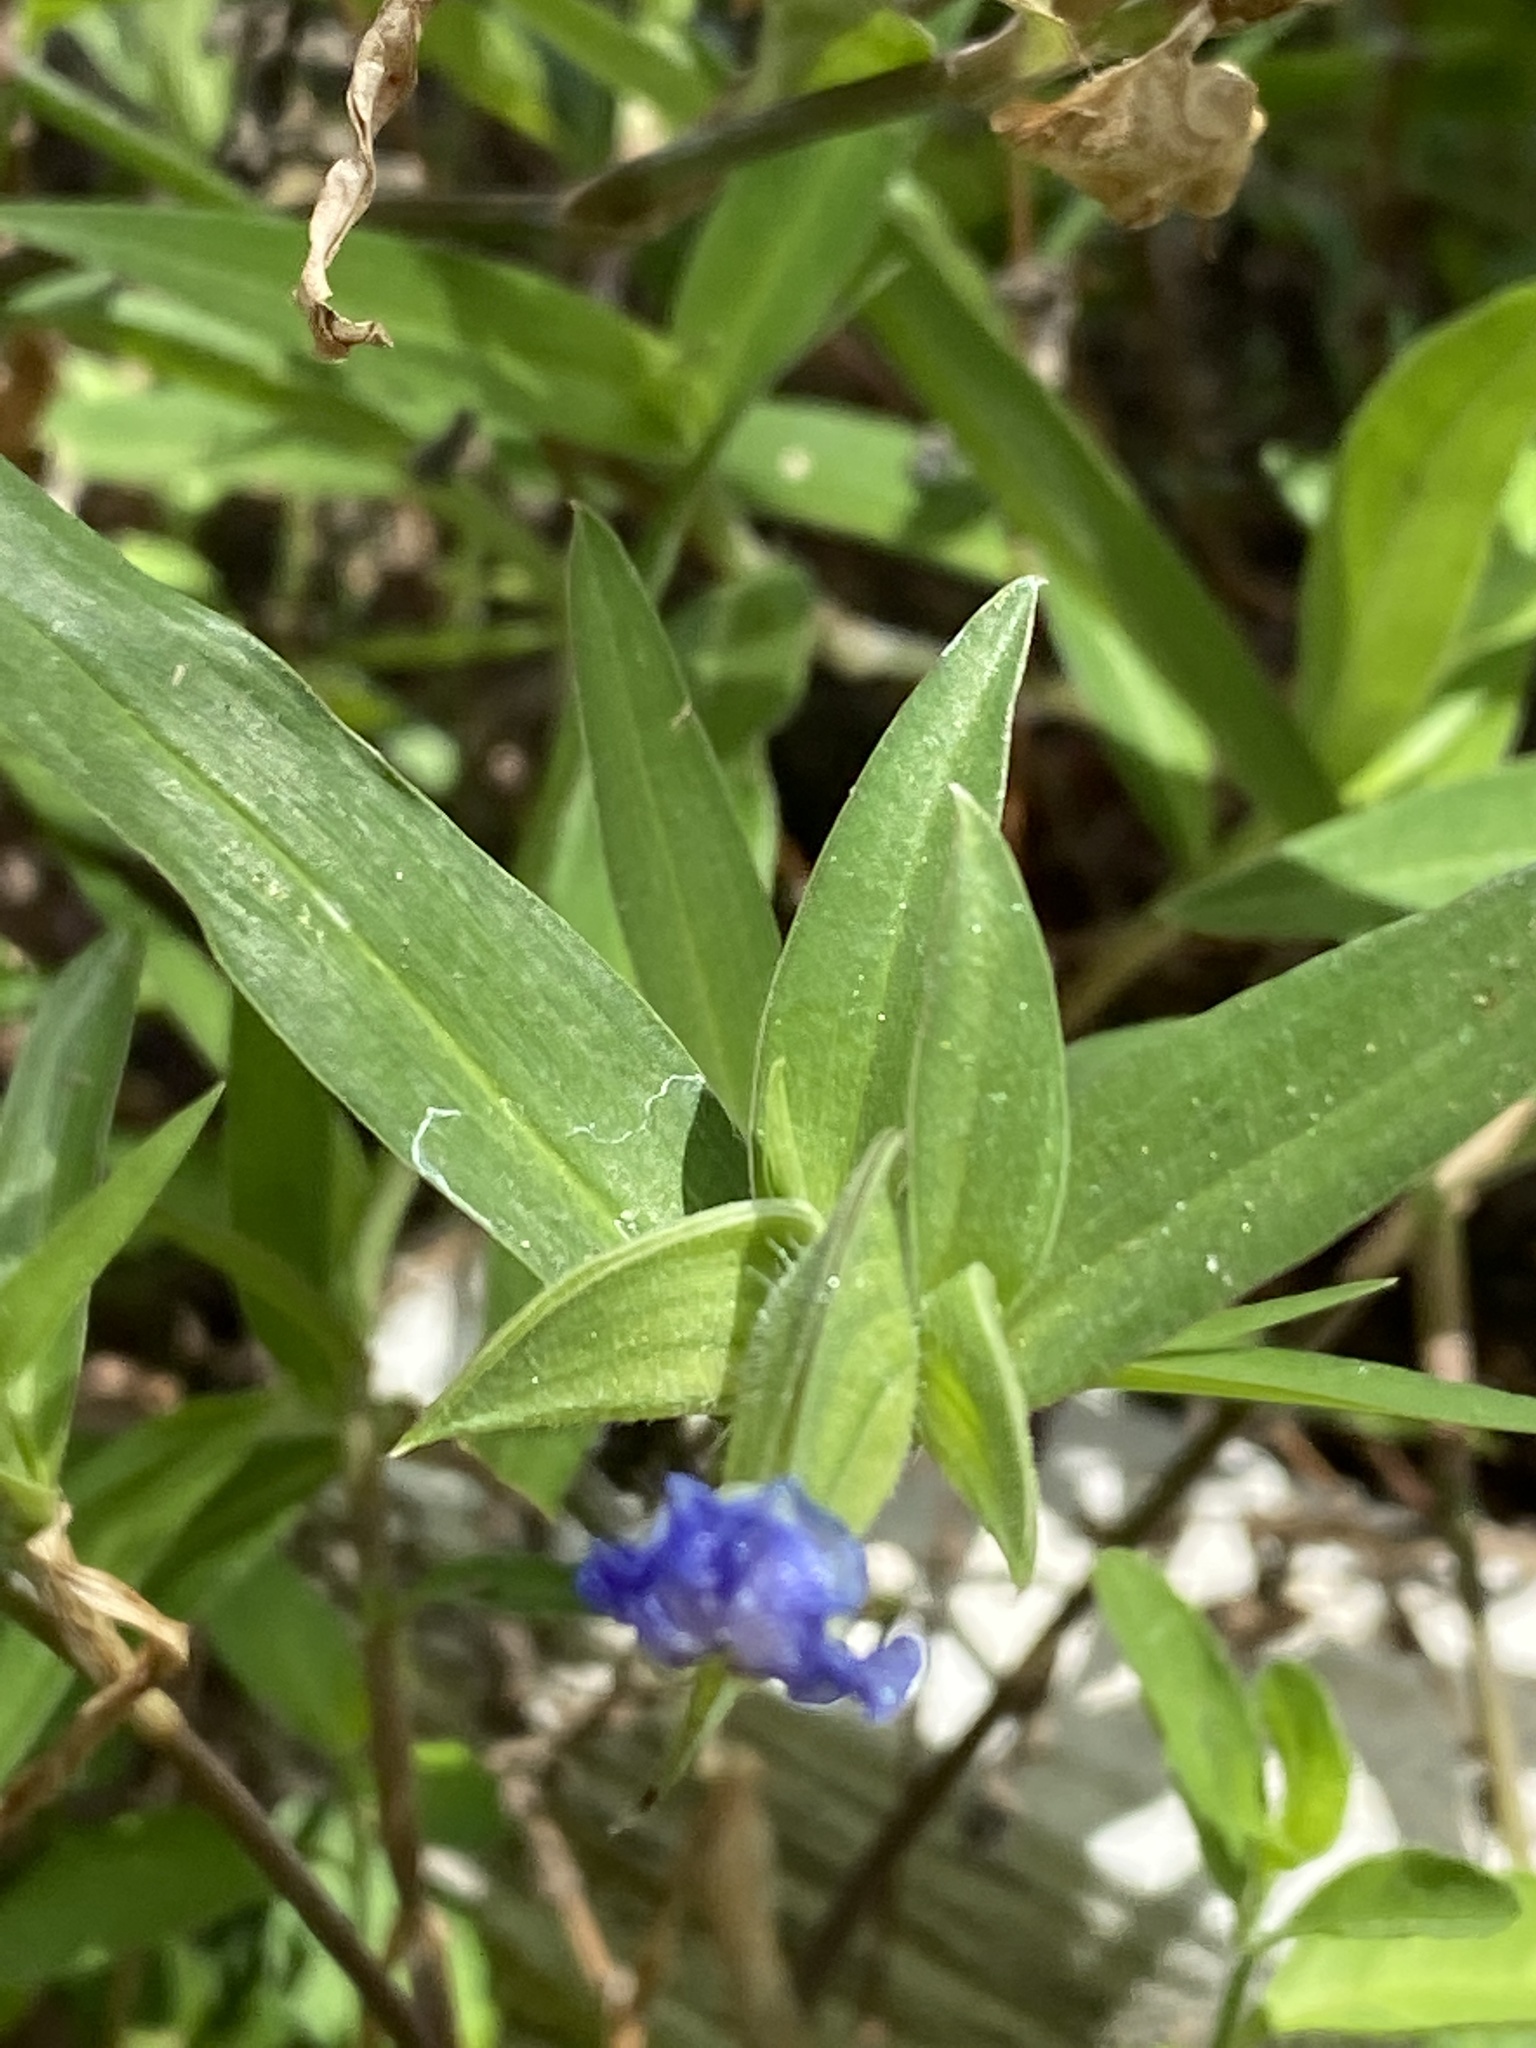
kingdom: Plantae
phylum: Tracheophyta
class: Liliopsida
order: Commelinales
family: Commelinaceae
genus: Commelina
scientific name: Commelina erecta
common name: Blousel blommetjie
